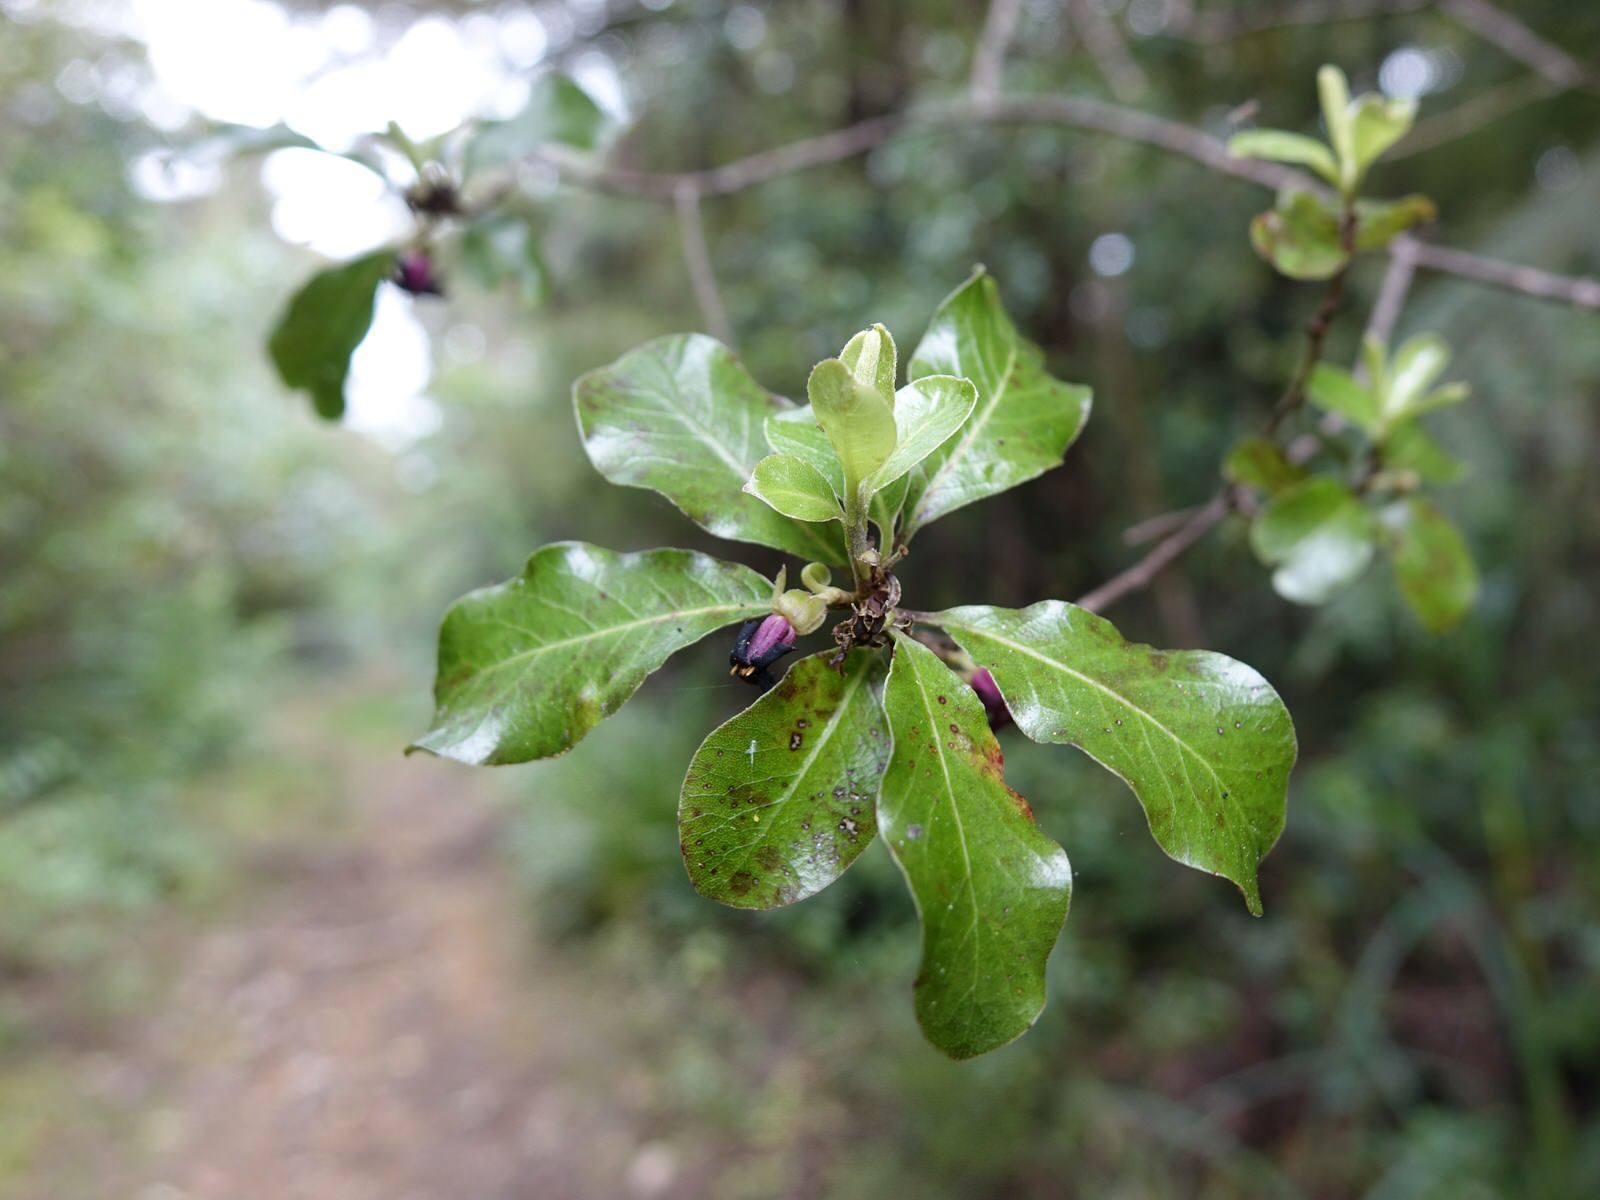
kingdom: Plantae
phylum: Tracheophyta
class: Magnoliopsida
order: Apiales
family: Pittosporaceae
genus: Pittosporum
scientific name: Pittosporum tenuifolium
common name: Kohuhu
